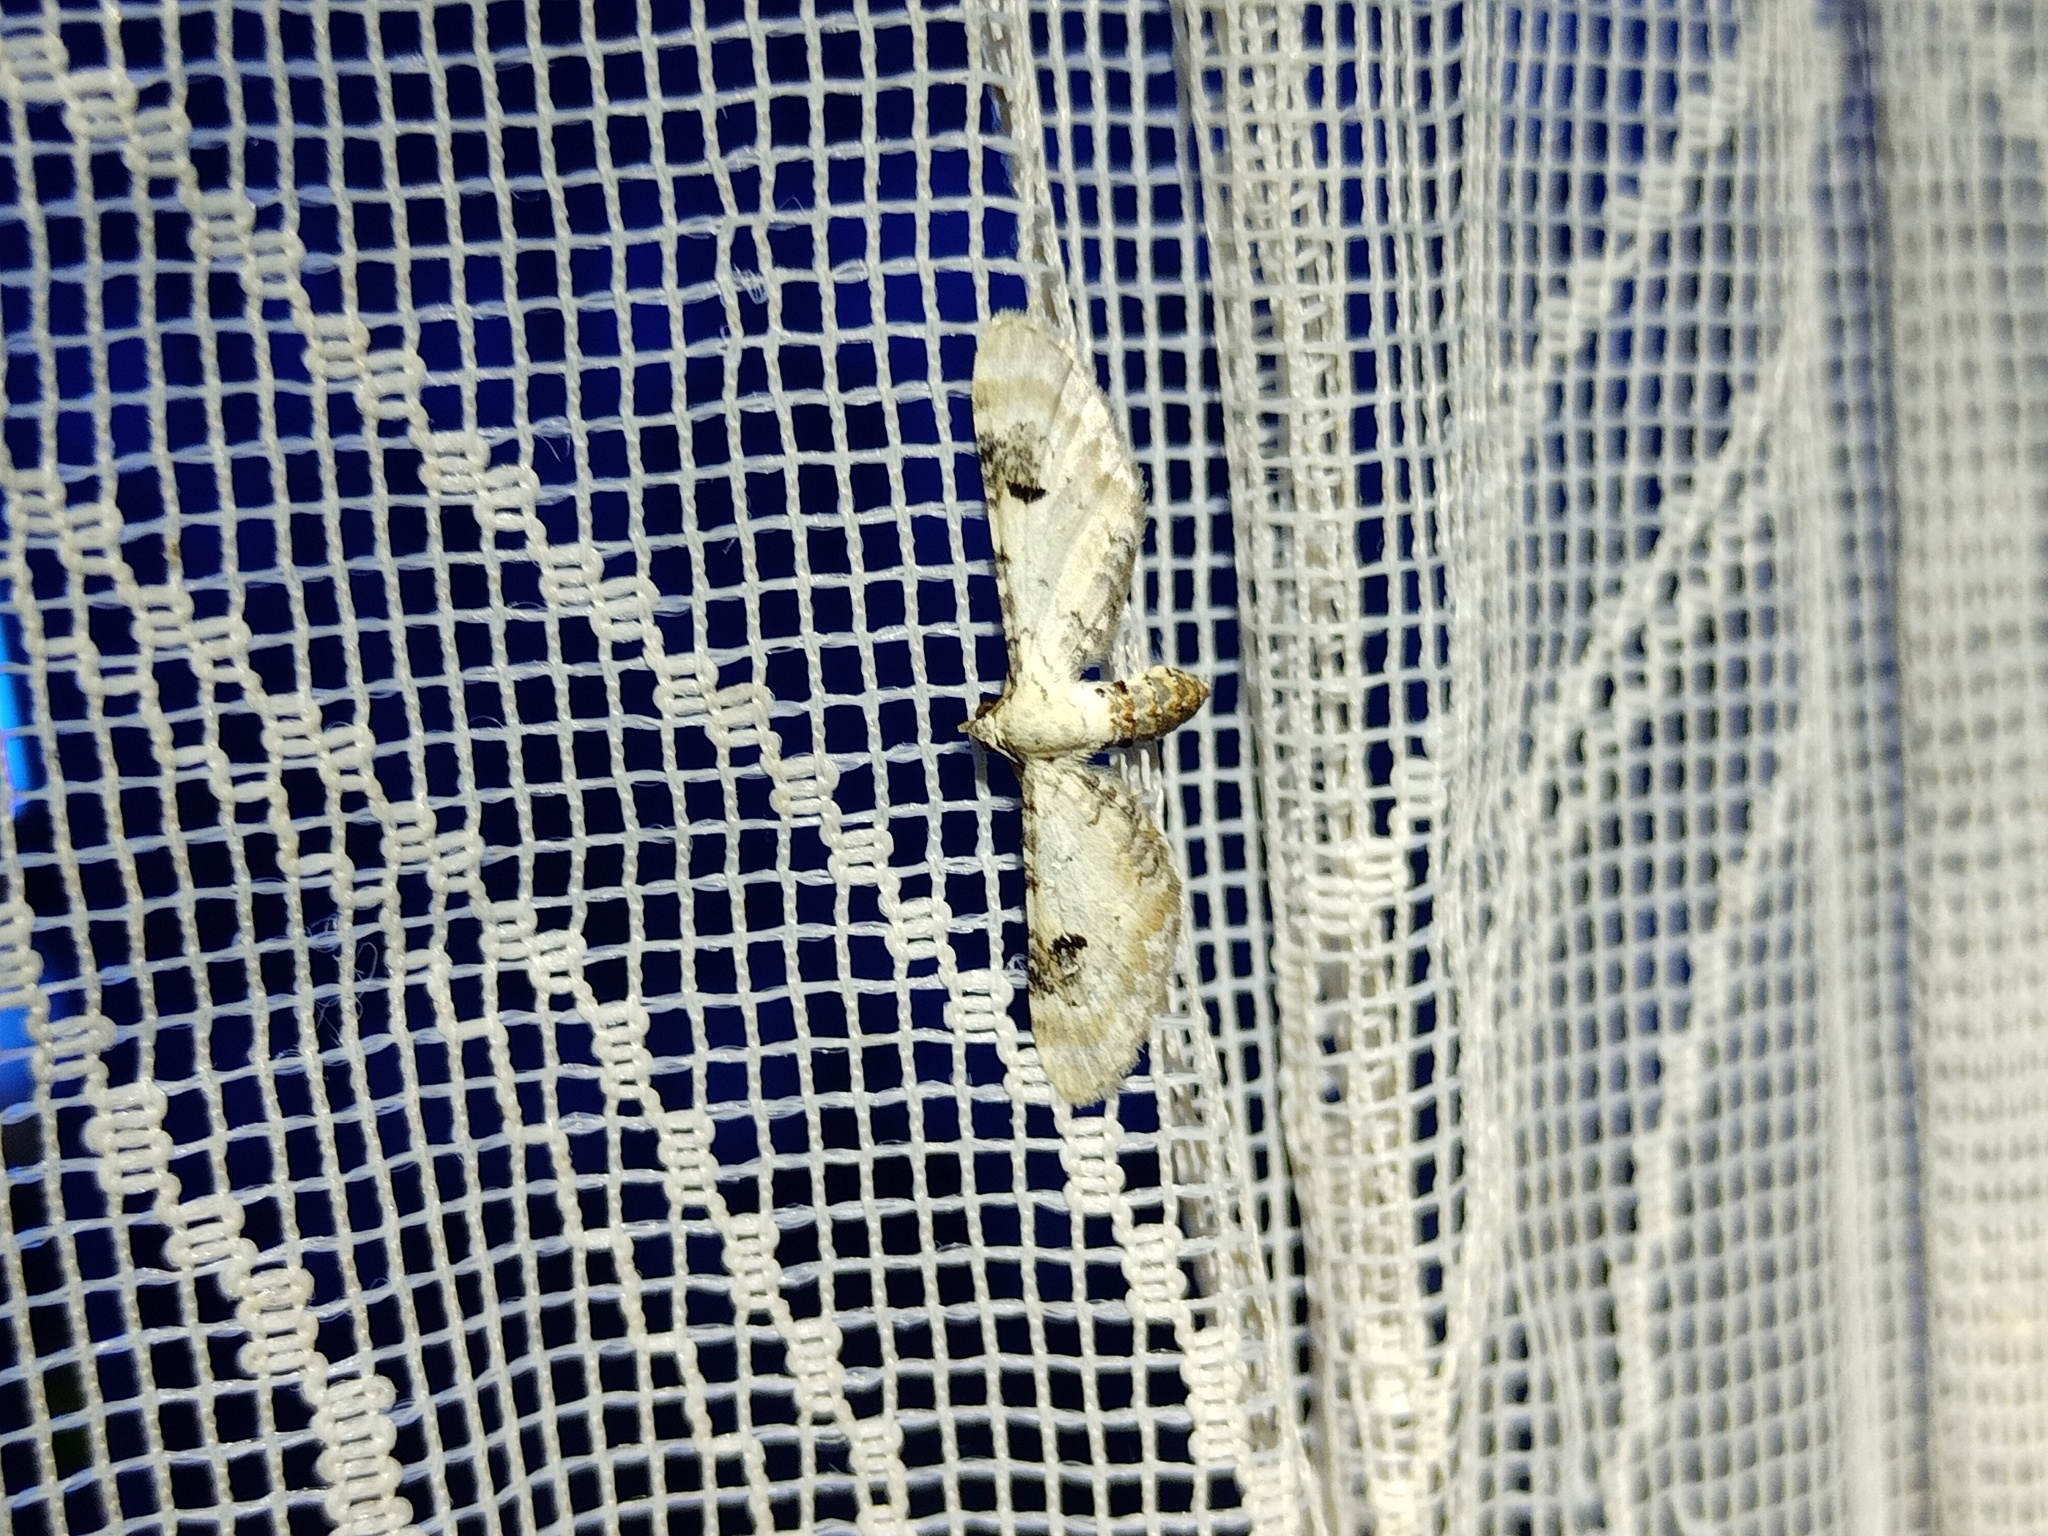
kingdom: Animalia
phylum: Arthropoda
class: Insecta
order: Lepidoptera
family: Geometridae
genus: Eupithecia
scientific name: Eupithecia centaureata
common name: Lime-speck pug
